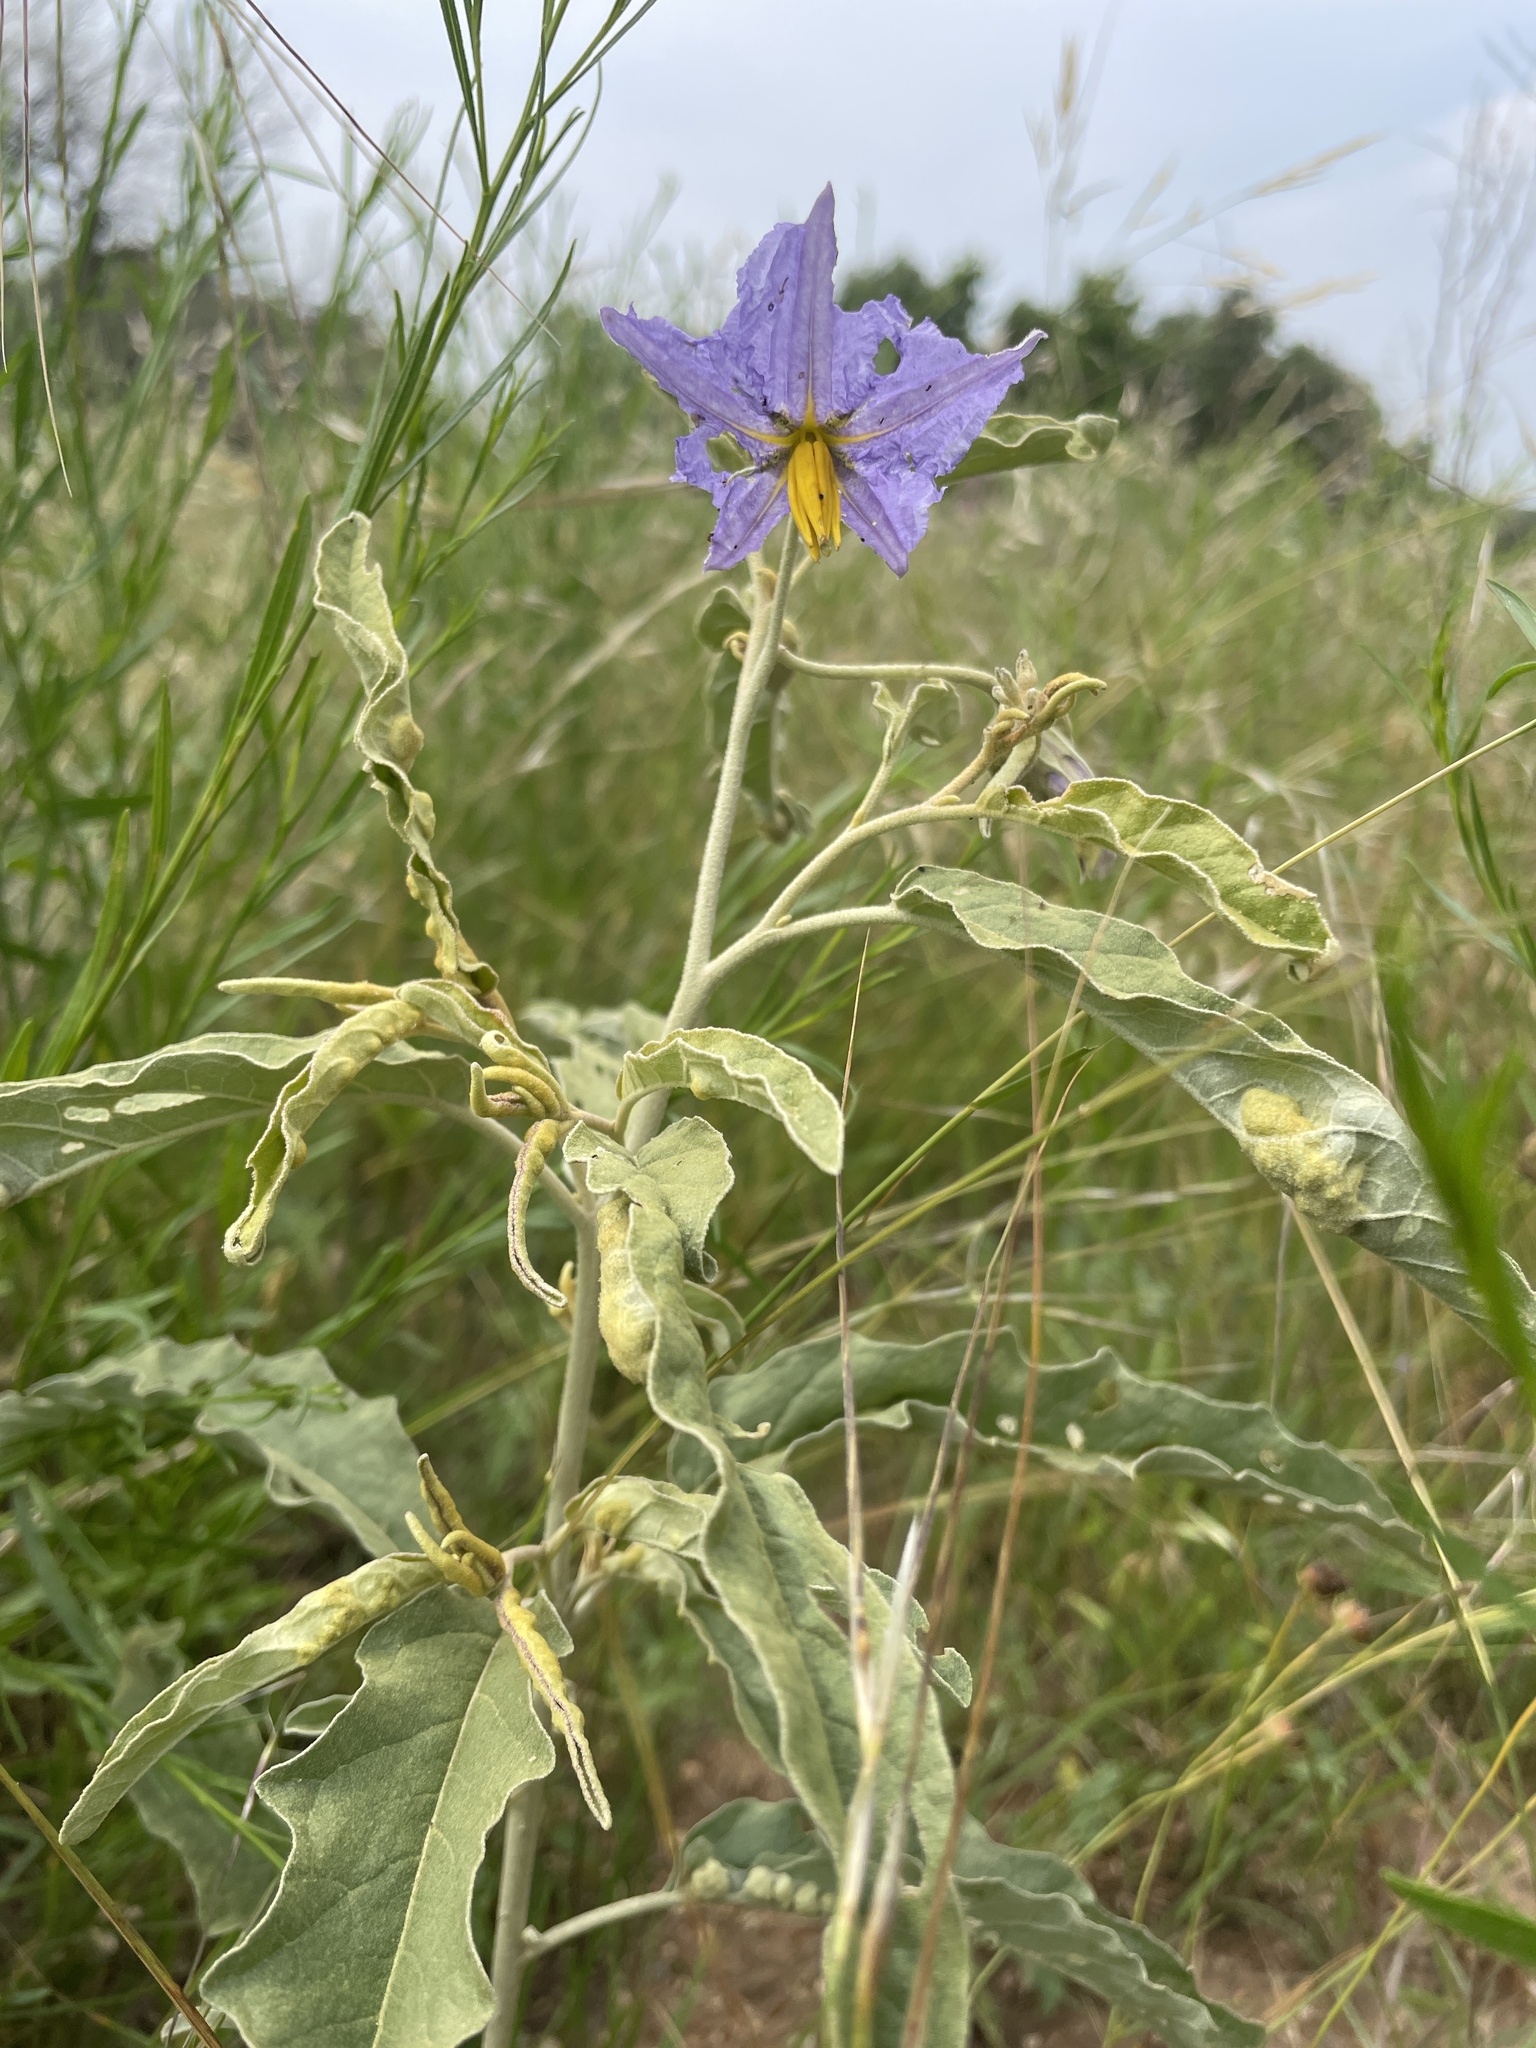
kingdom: Plantae
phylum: Tracheophyta
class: Magnoliopsida
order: Solanales
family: Solanaceae
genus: Solanum
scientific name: Solanum elaeagnifolium
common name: Silverleaf nightshade
